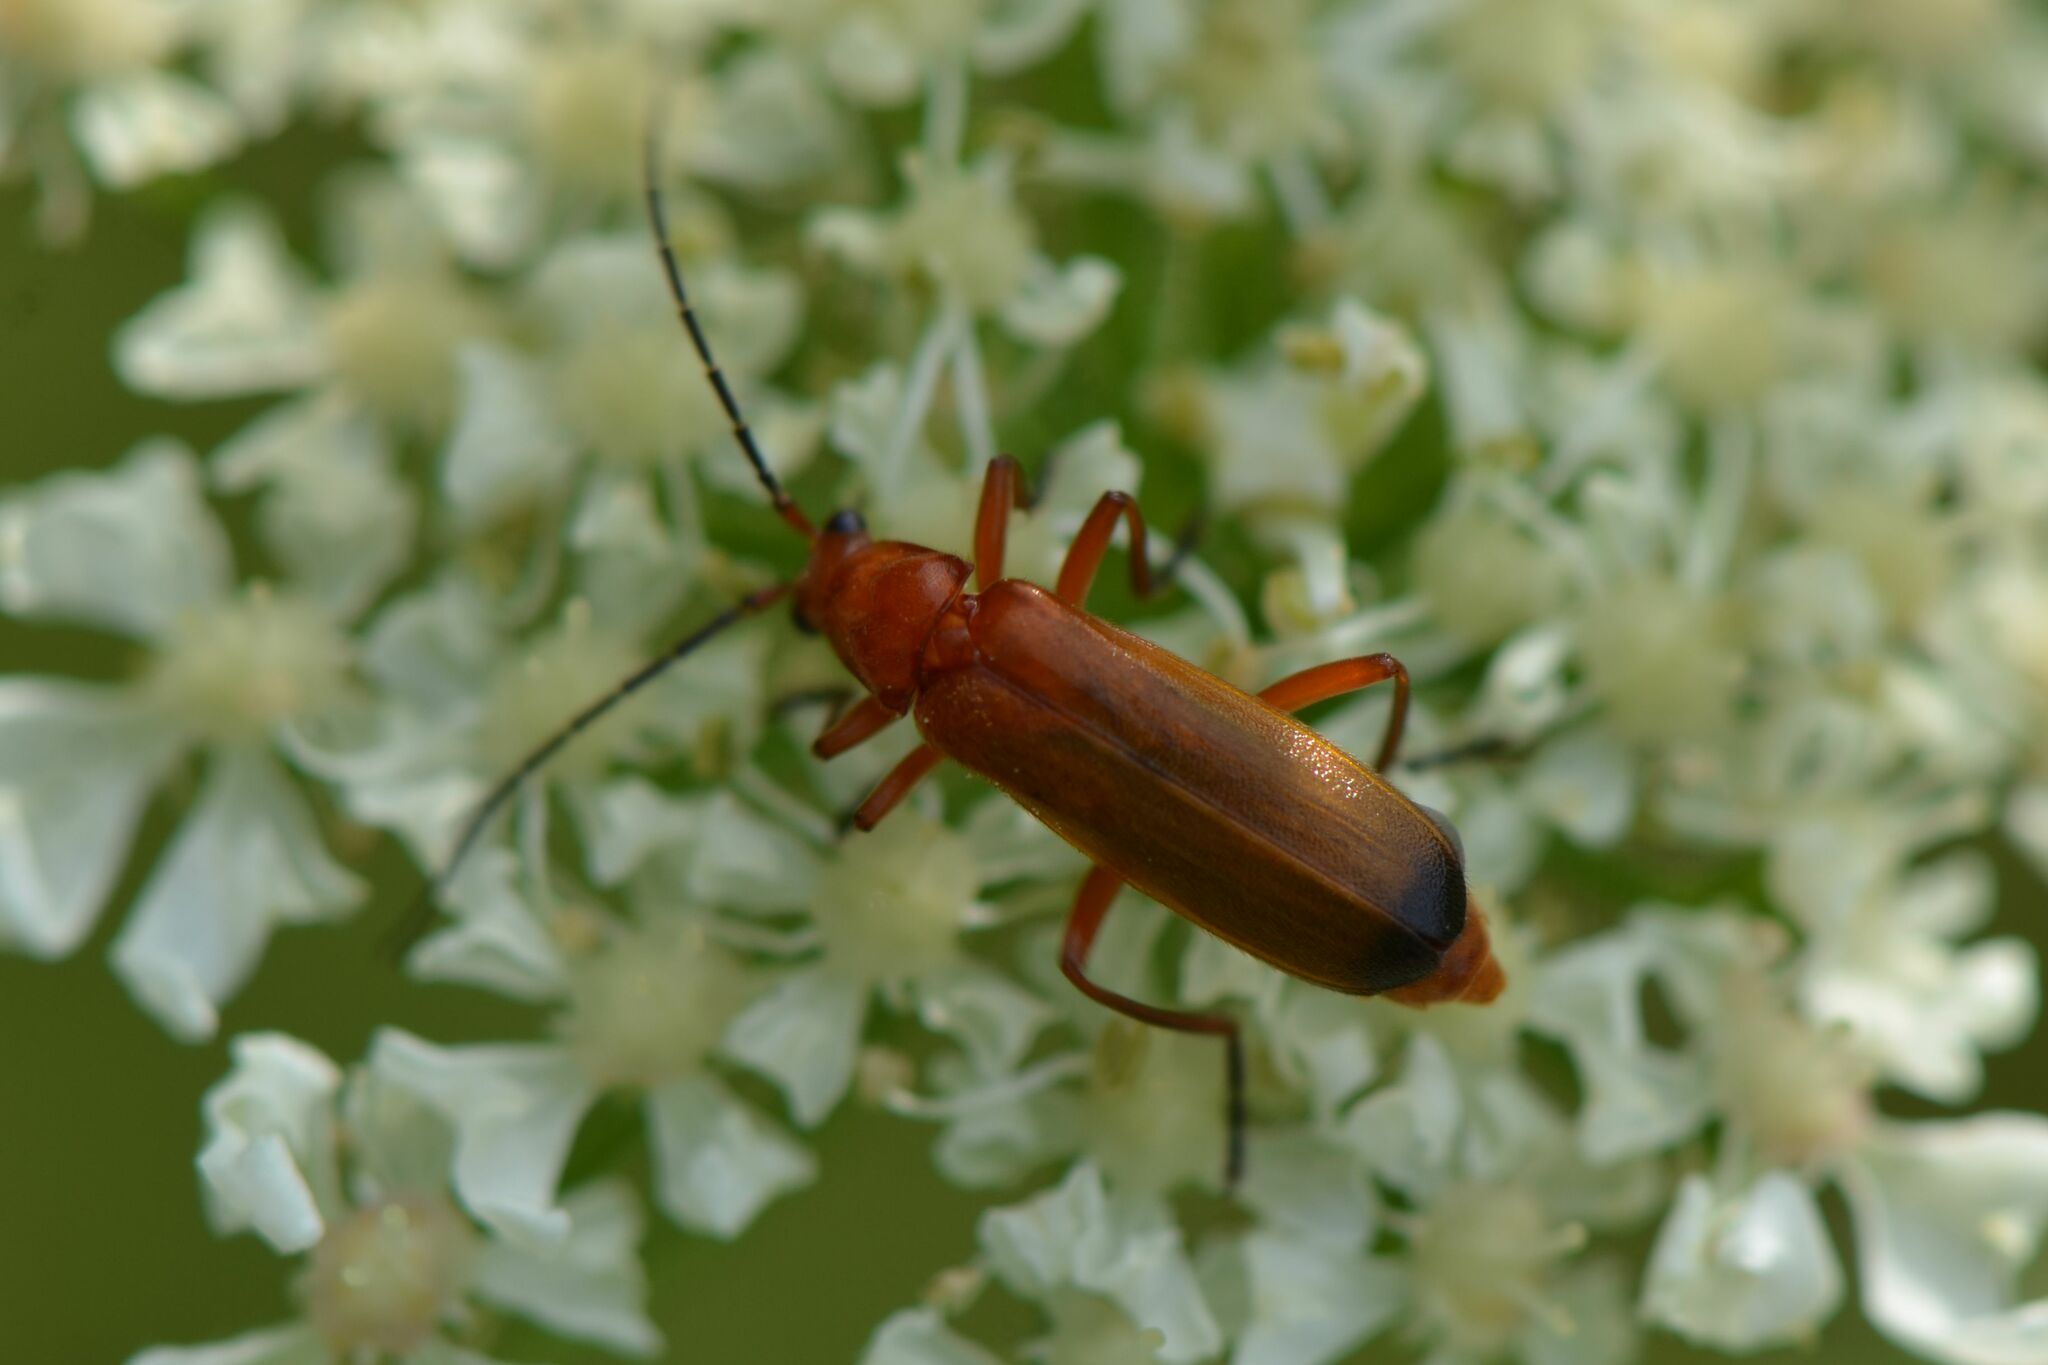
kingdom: Animalia
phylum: Arthropoda
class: Insecta
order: Coleoptera
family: Cantharidae
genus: Rhagonycha
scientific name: Rhagonycha fulva
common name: Common red soldier beetle
